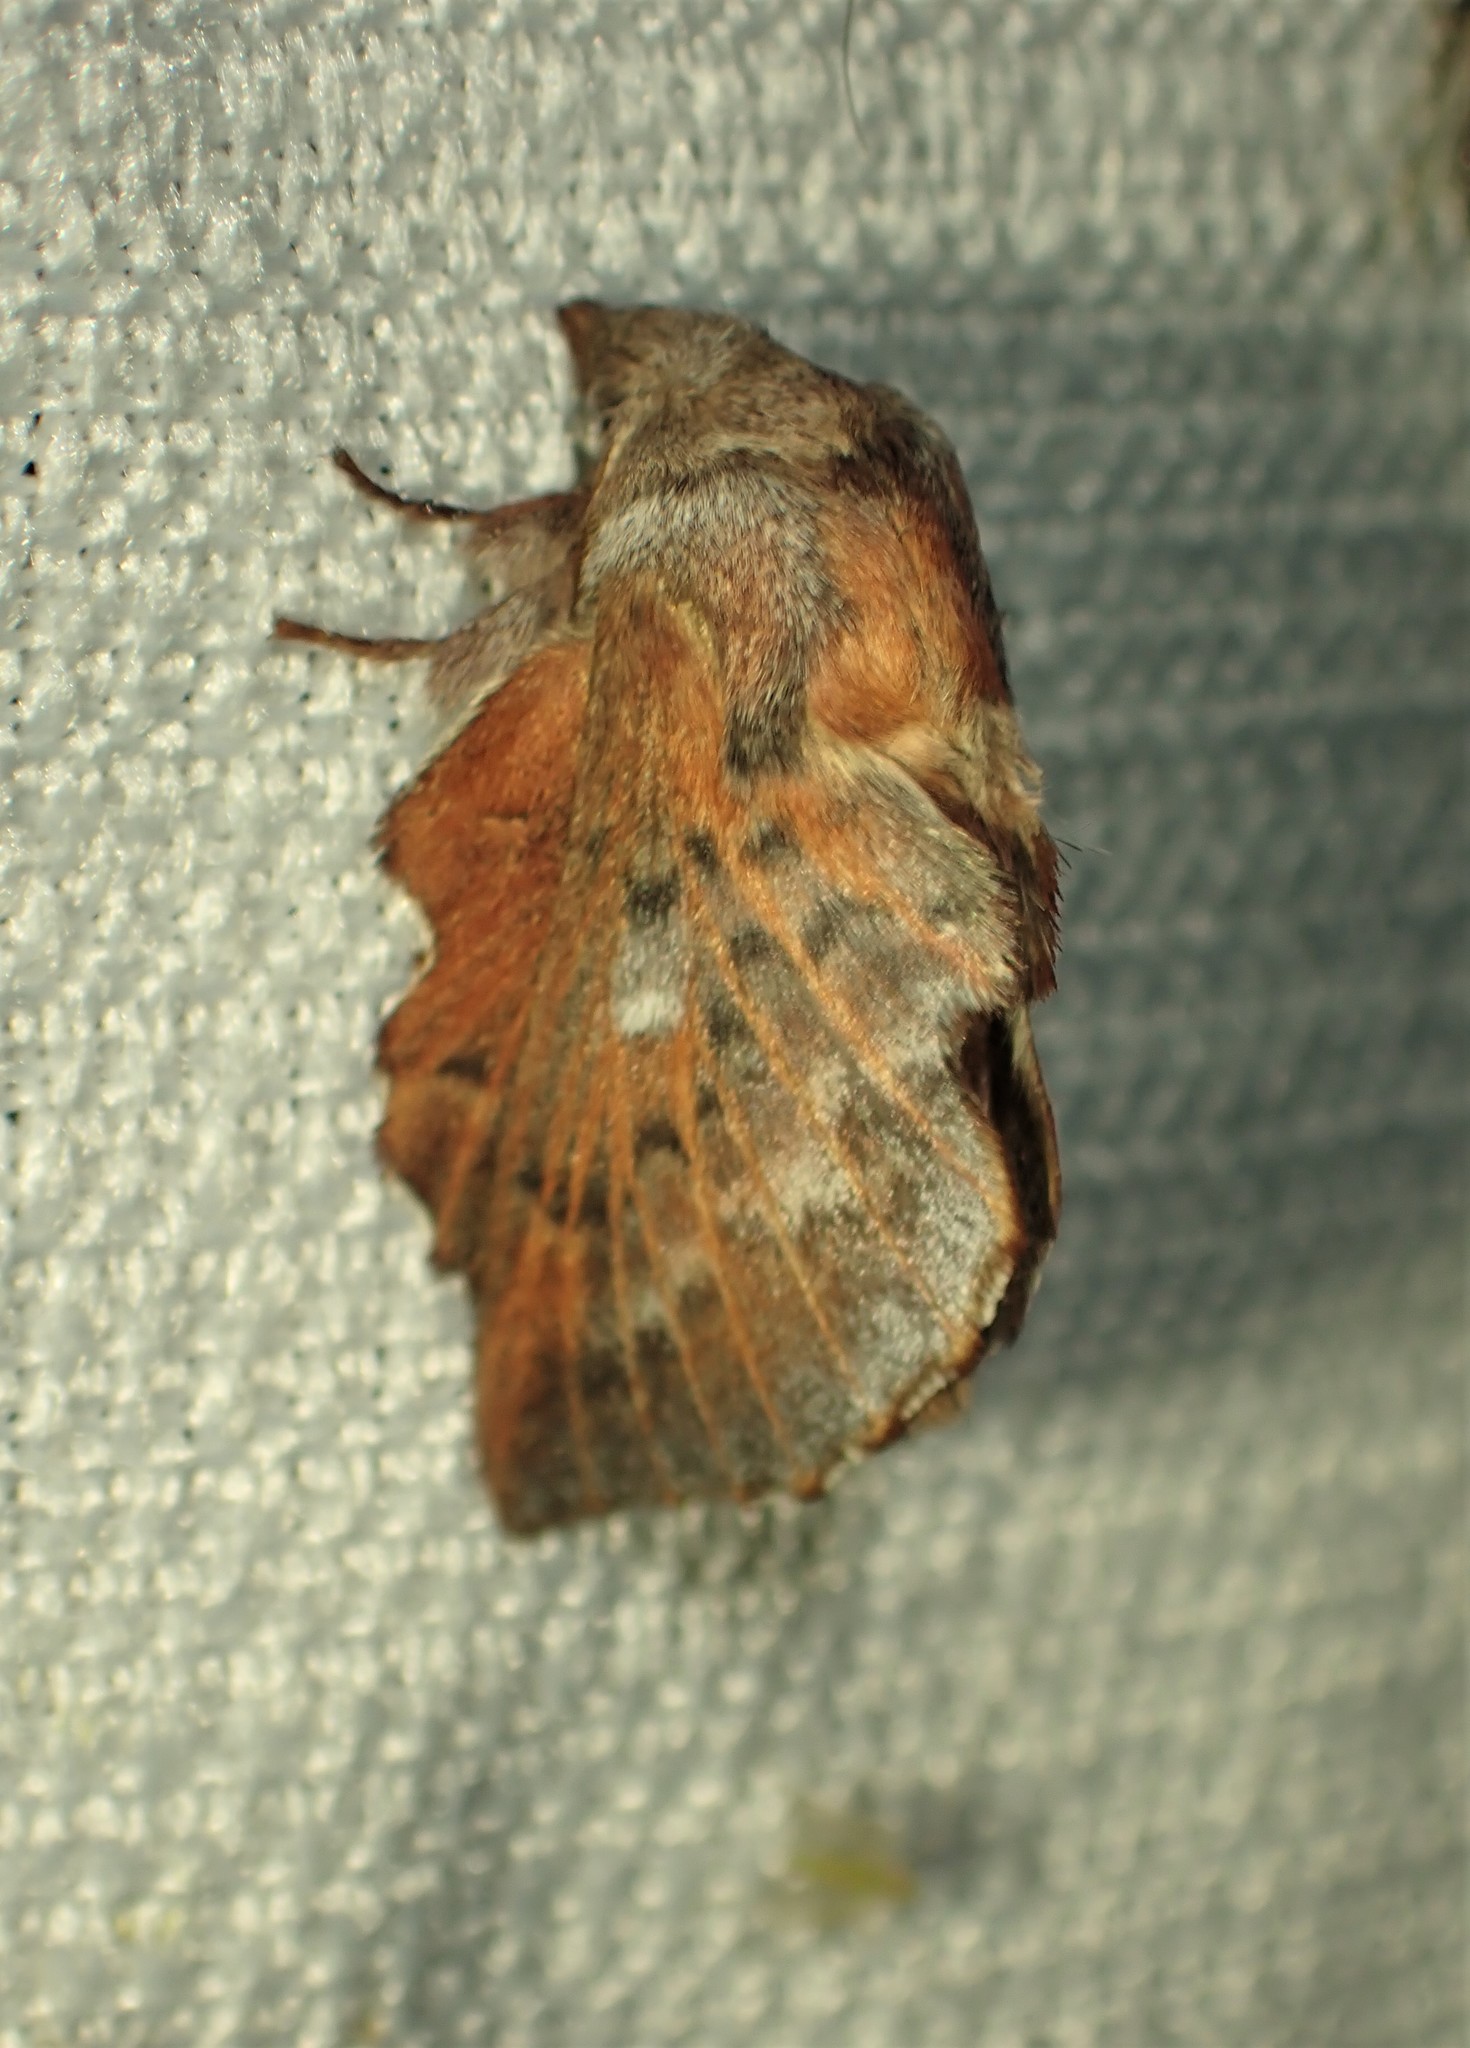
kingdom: Animalia
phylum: Arthropoda
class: Insecta
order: Lepidoptera
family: Lasiocampidae
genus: Phyllodesma
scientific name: Phyllodesma americana
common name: American lappet moth
